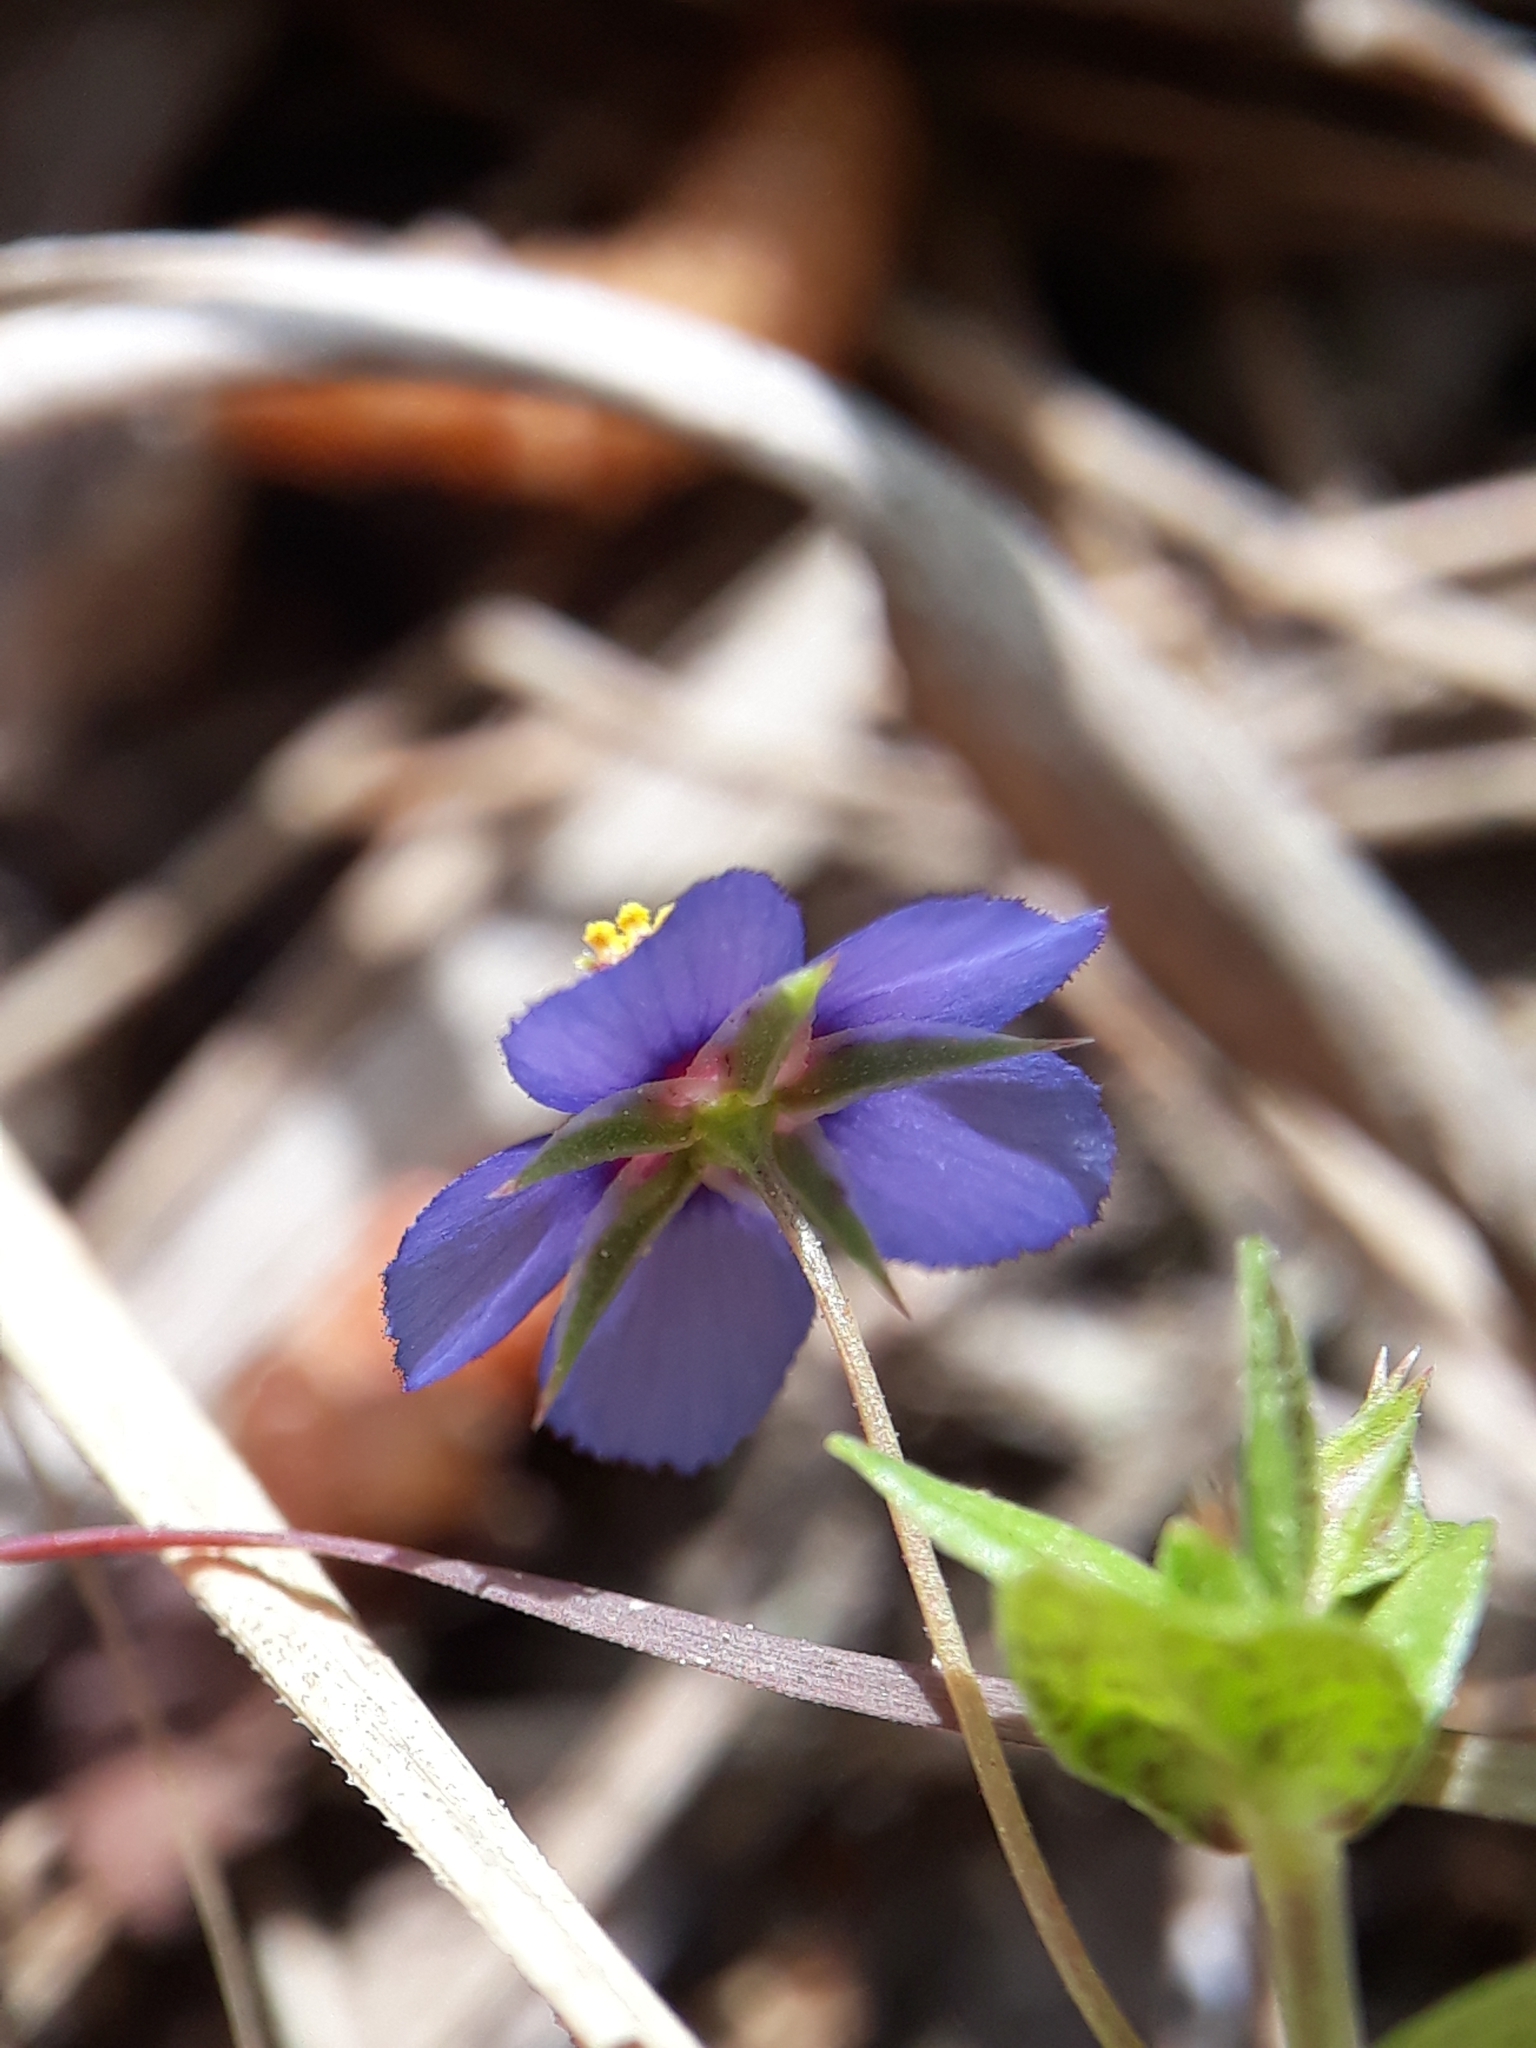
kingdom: Plantae
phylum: Tracheophyta
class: Magnoliopsida
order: Ericales
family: Primulaceae
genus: Lysimachia
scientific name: Lysimachia loeflingii
